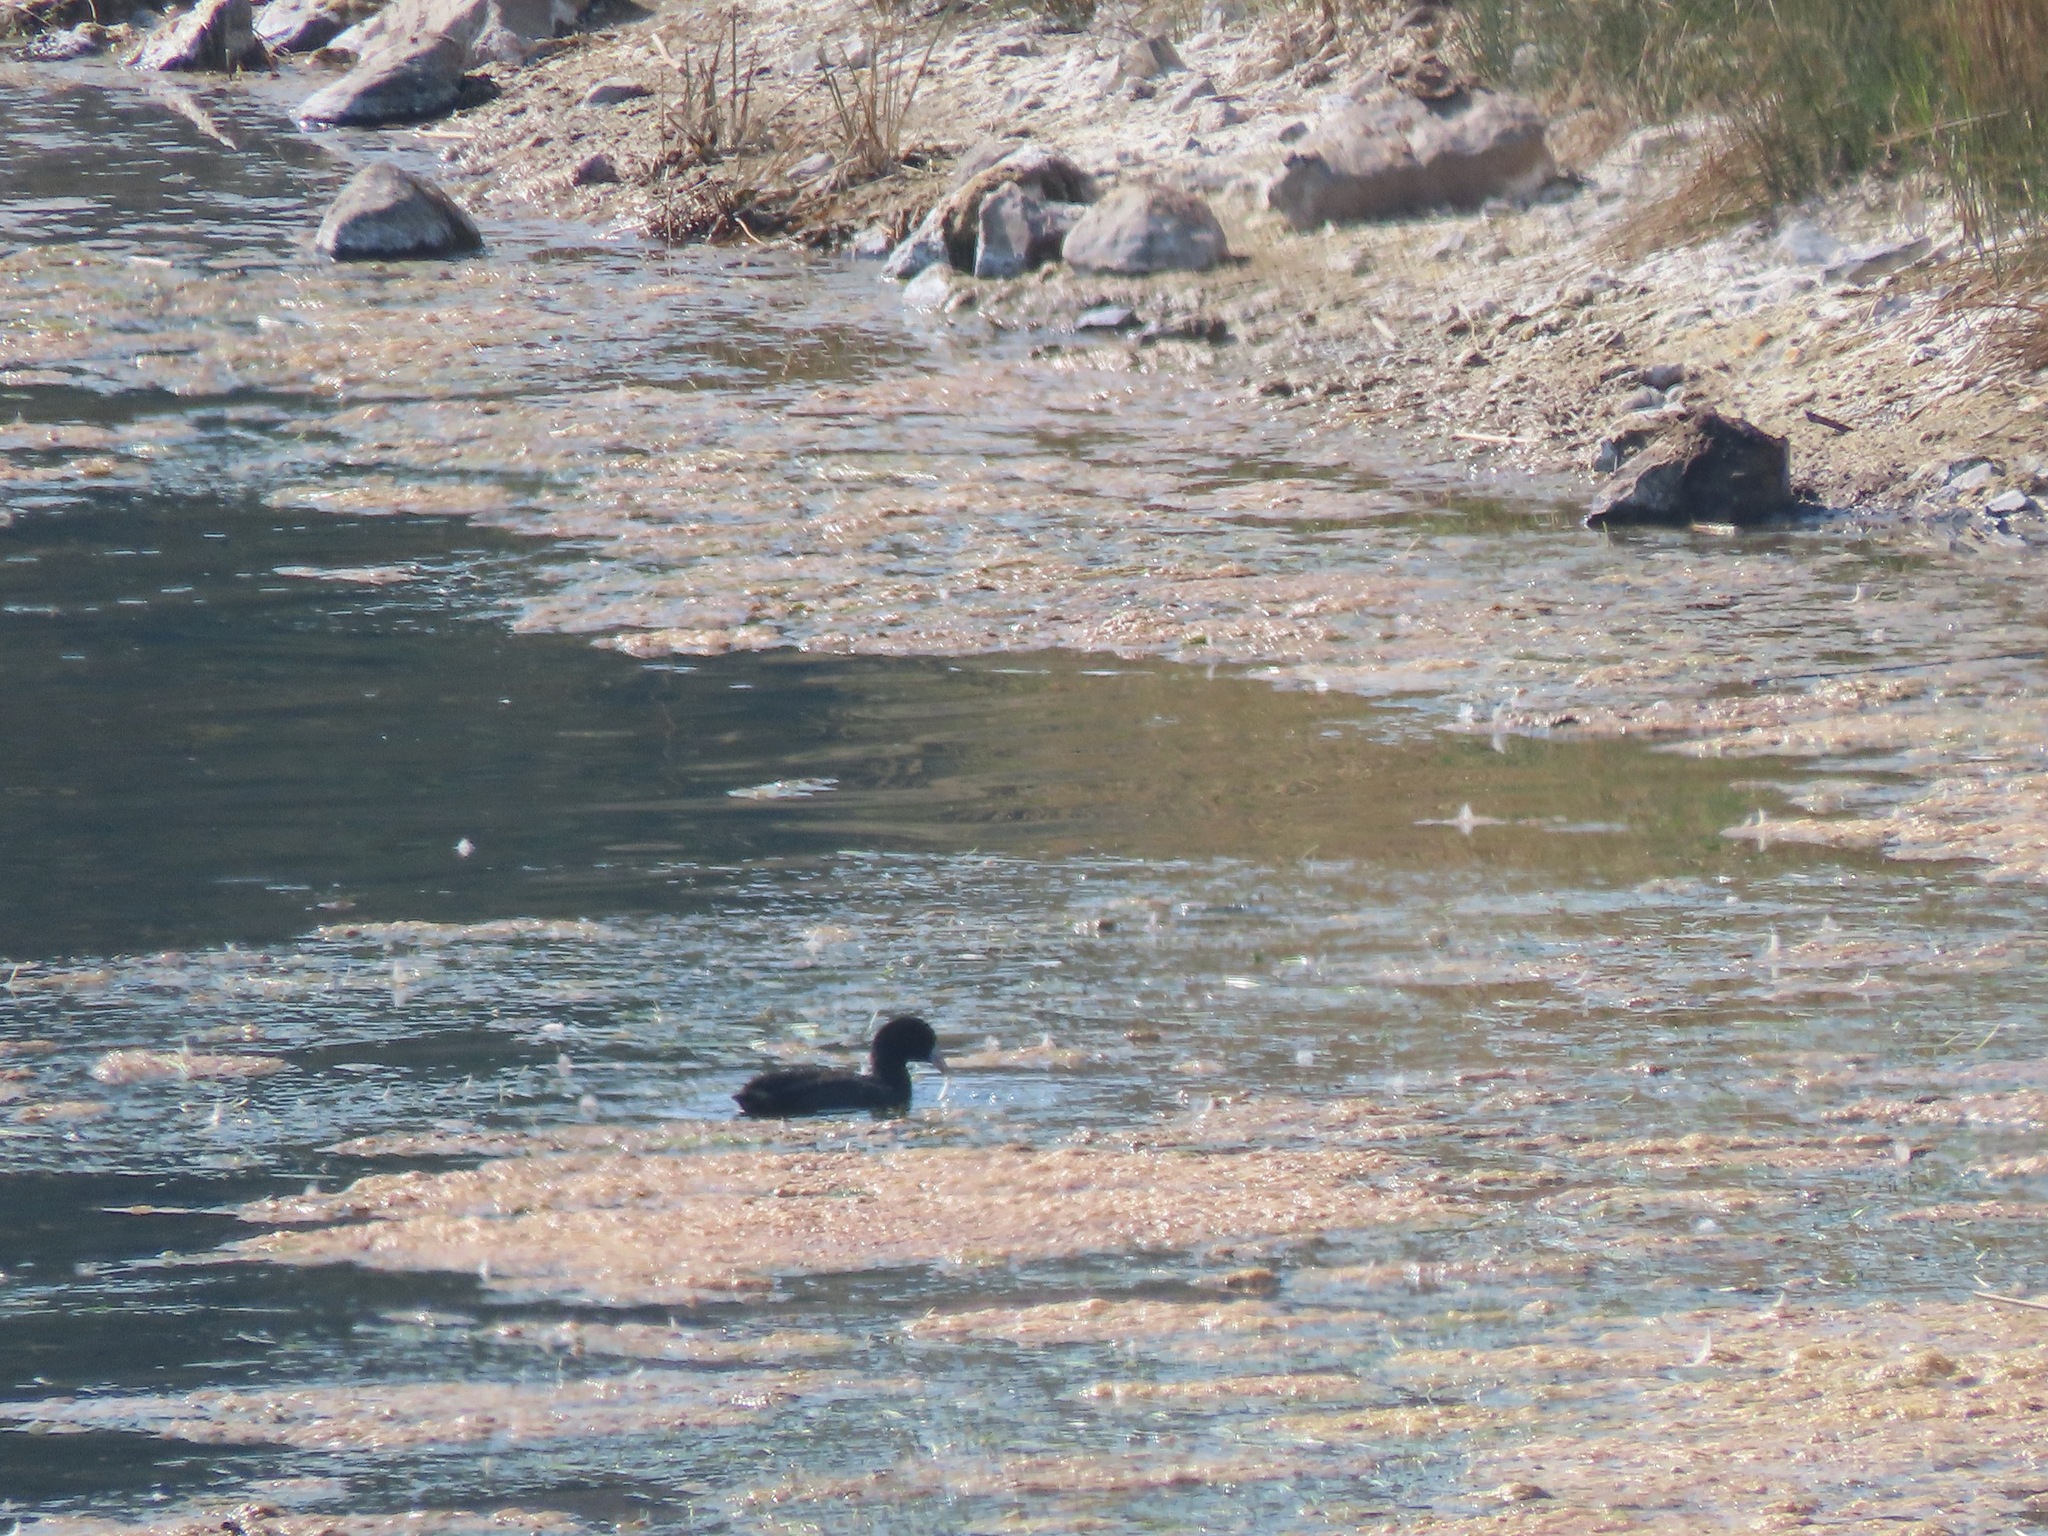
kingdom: Animalia
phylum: Chordata
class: Aves
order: Gruiformes
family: Rallidae
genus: Fulica
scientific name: Fulica americana
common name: American coot
